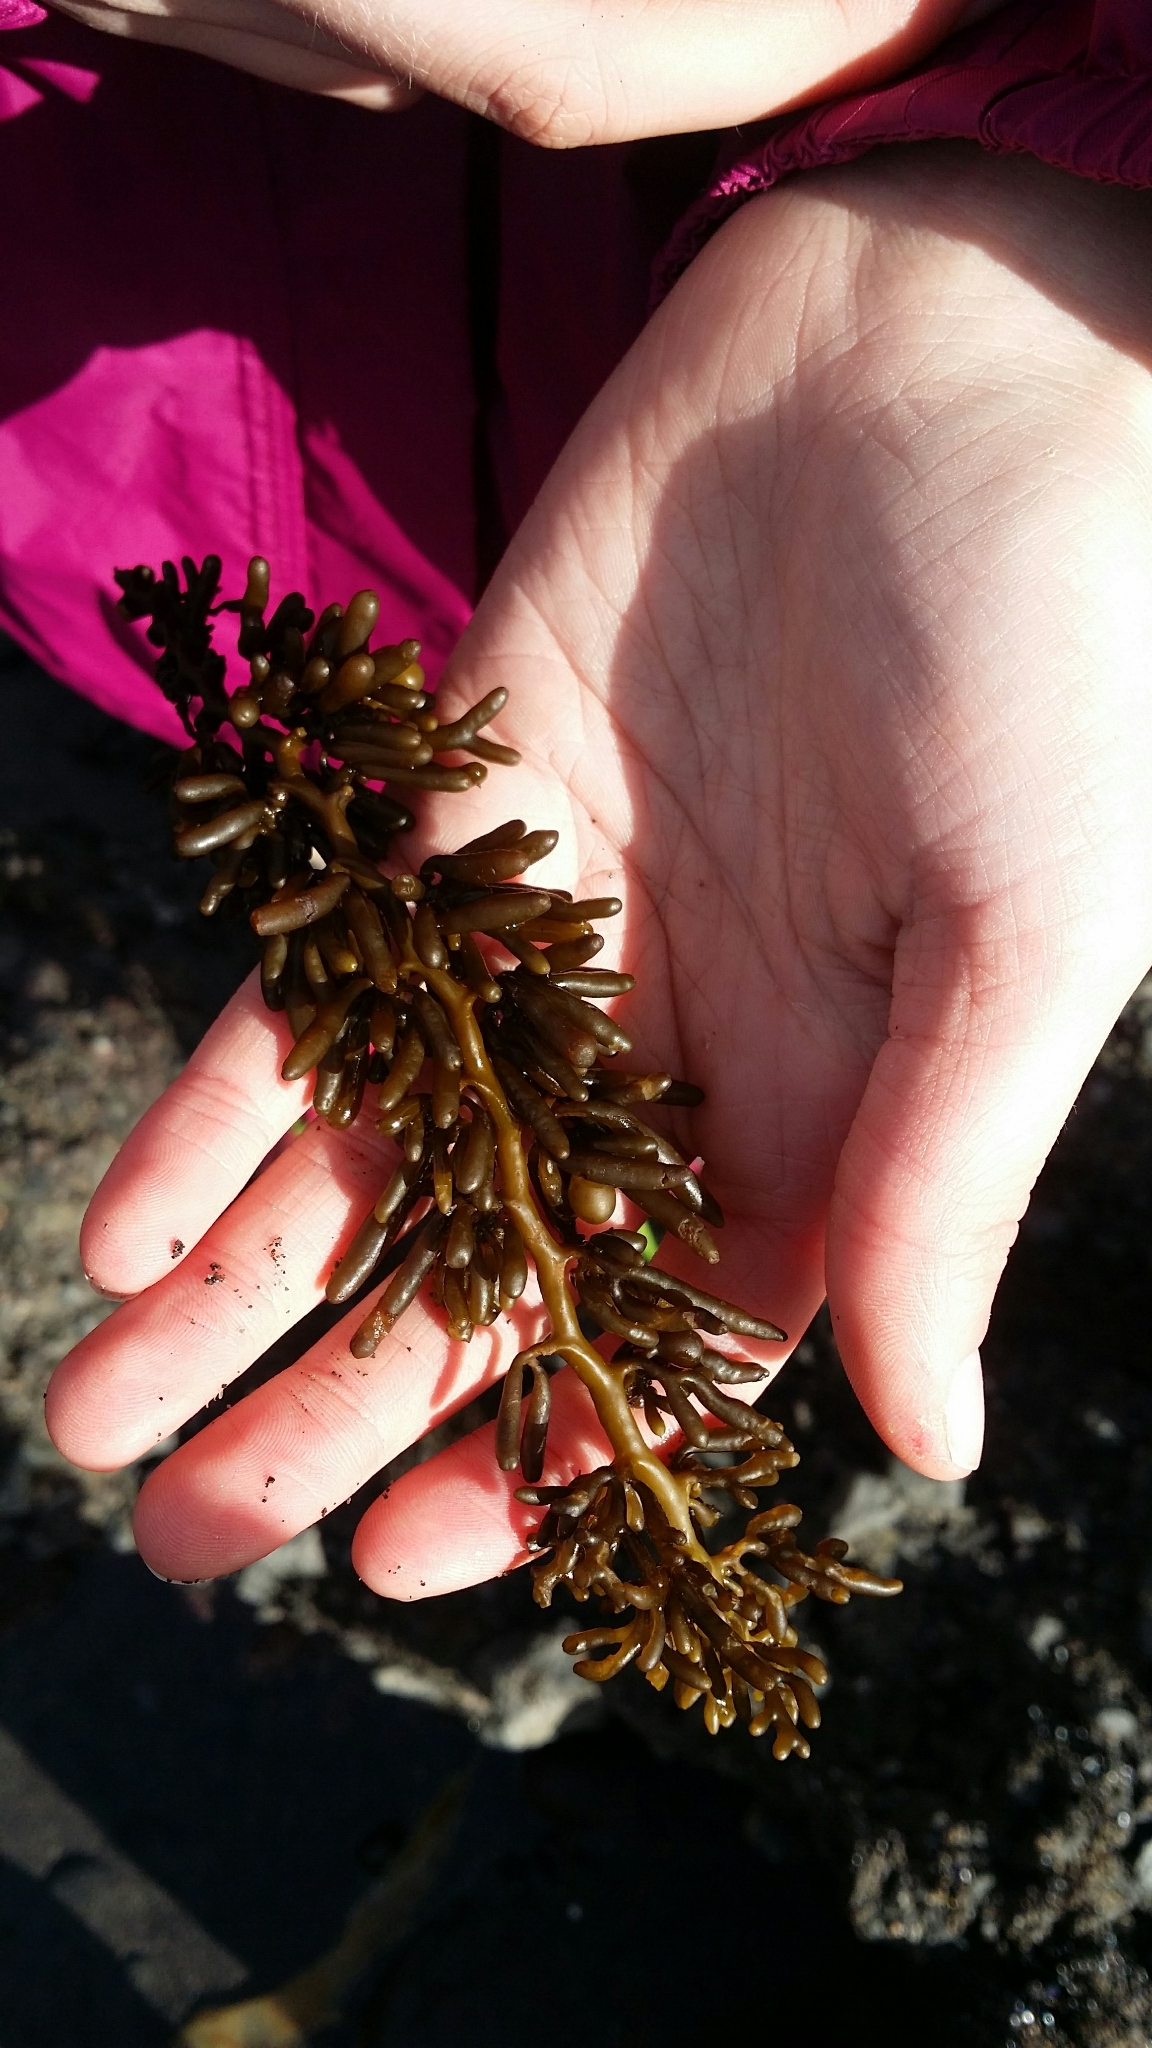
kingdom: Chromista
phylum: Ochrophyta
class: Phaeophyceae
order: Fucales
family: Sargassaceae
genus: Cystophora
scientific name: Cystophora torulosa
